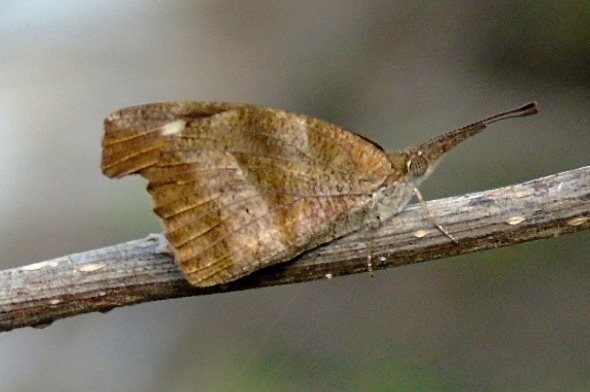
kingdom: Animalia
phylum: Arthropoda
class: Insecta
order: Lepidoptera
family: Nymphalidae
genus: Libytheana
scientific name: Libytheana carinenta
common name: American snout
